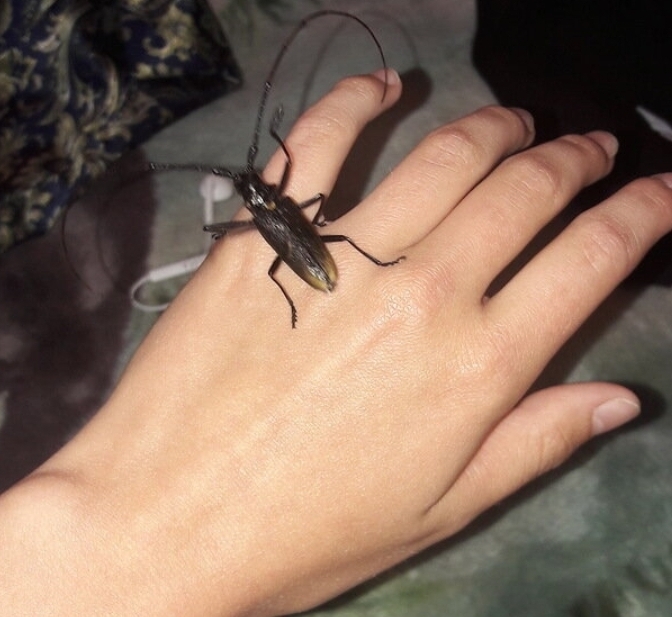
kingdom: Animalia
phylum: Arthropoda
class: Insecta
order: Coleoptera
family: Cerambycidae
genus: Monochamus
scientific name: Monochamus urussovii
